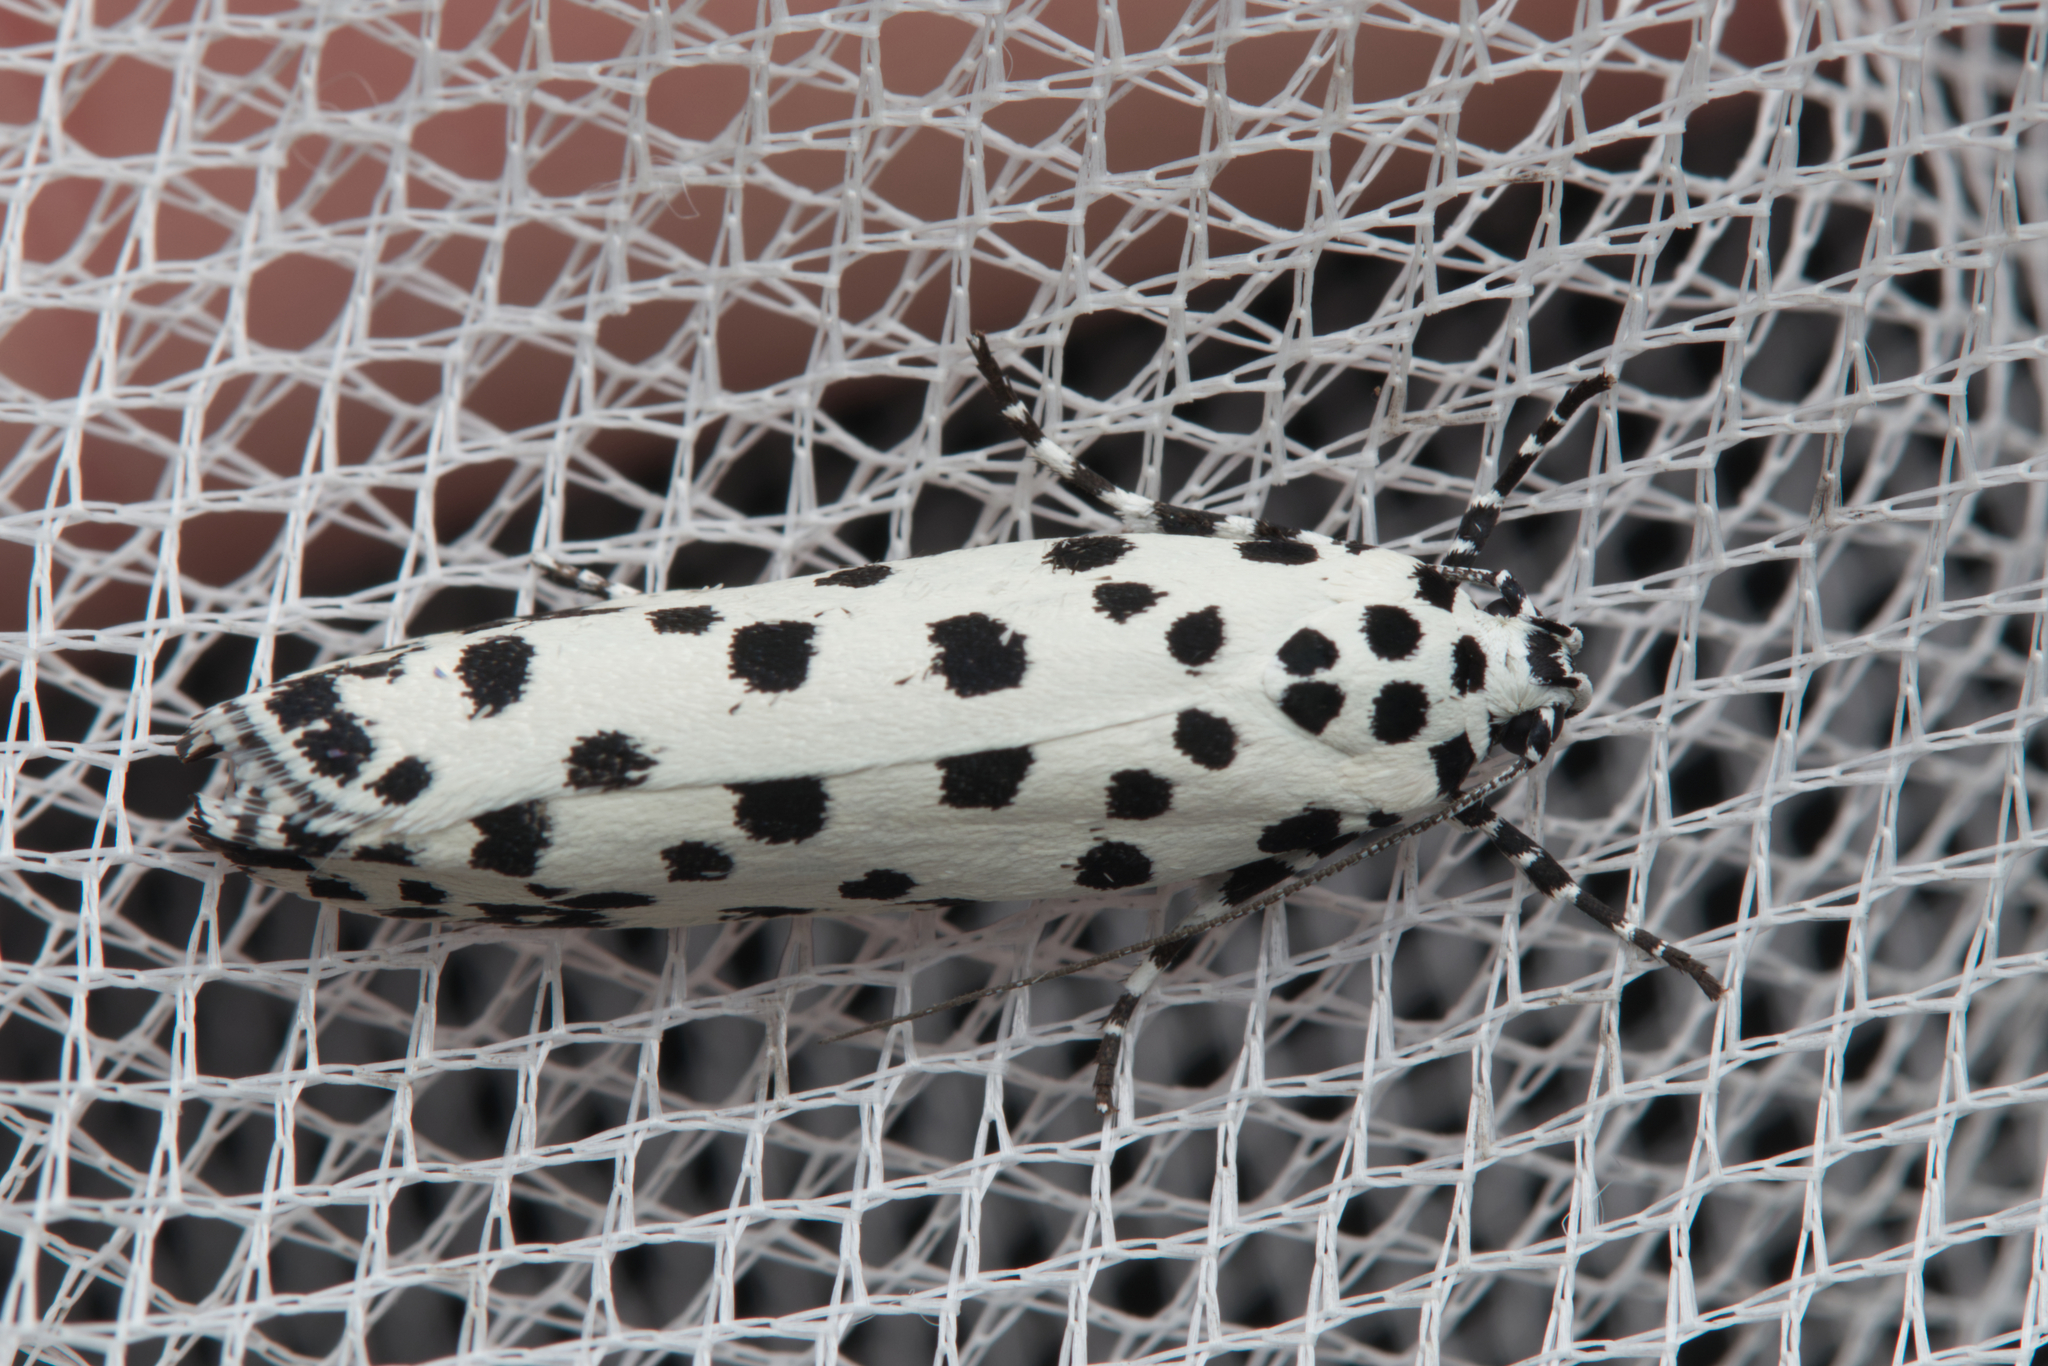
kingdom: Animalia
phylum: Arthropoda
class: Insecta
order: Lepidoptera
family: Ethmiidae
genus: Ethmia
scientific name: Ethmia clytodoxa
